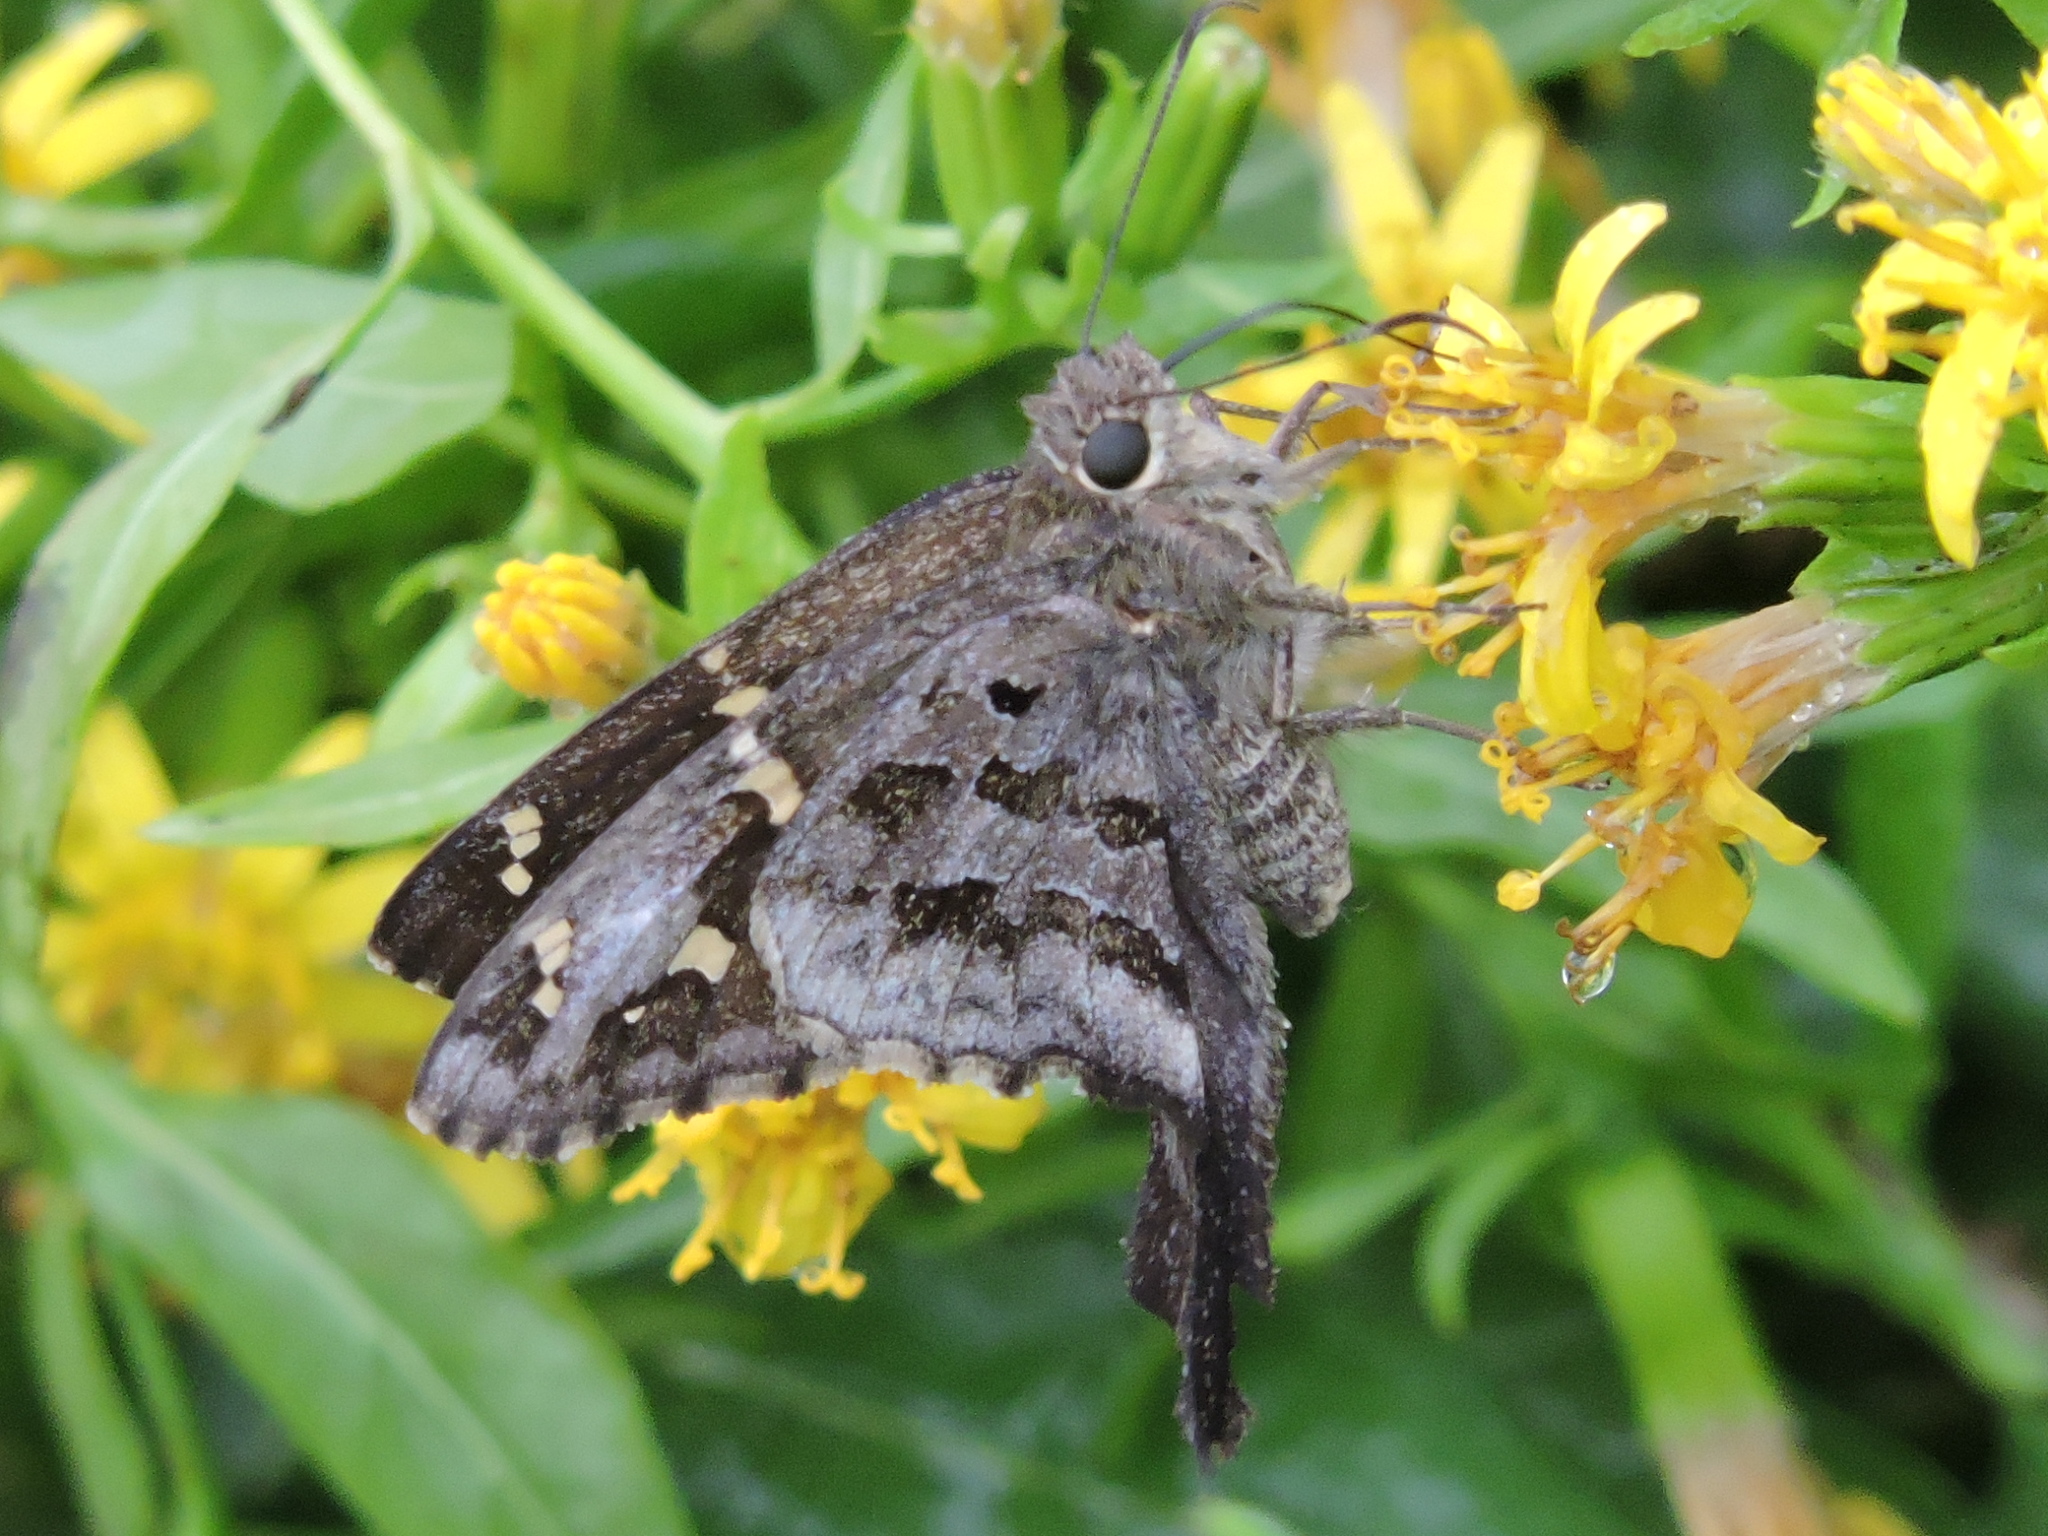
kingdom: Animalia
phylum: Arthropoda
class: Insecta
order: Lepidoptera
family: Hesperiidae
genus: Thorybes
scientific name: Thorybes
